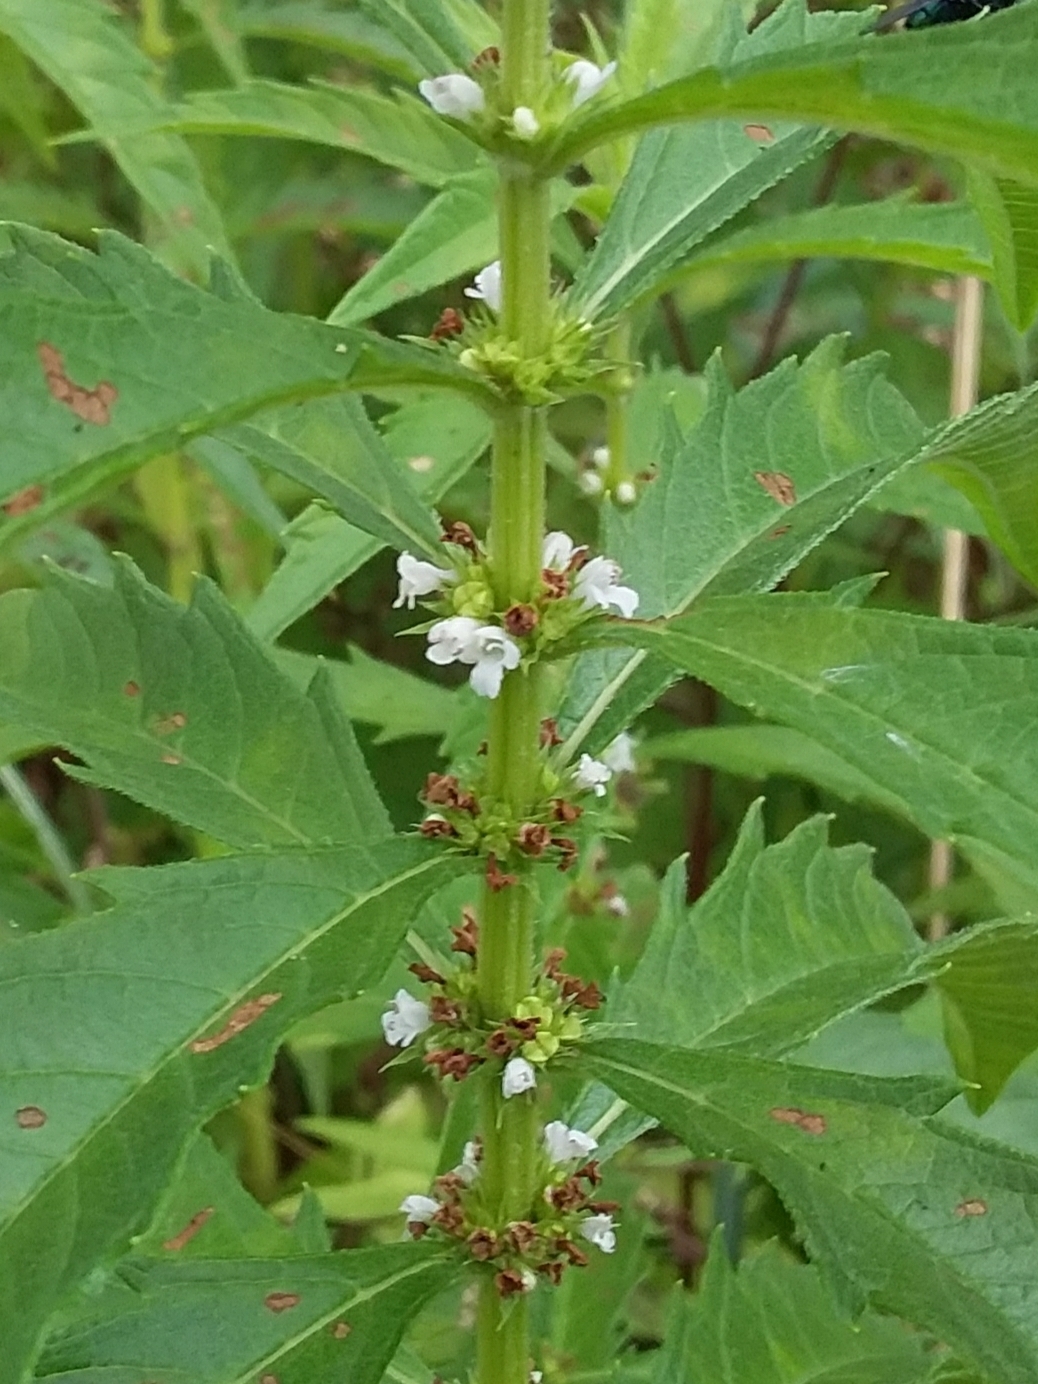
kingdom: Plantae
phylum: Tracheophyta
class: Magnoliopsida
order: Lamiales
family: Lamiaceae
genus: Lycopus
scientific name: Lycopus australis
